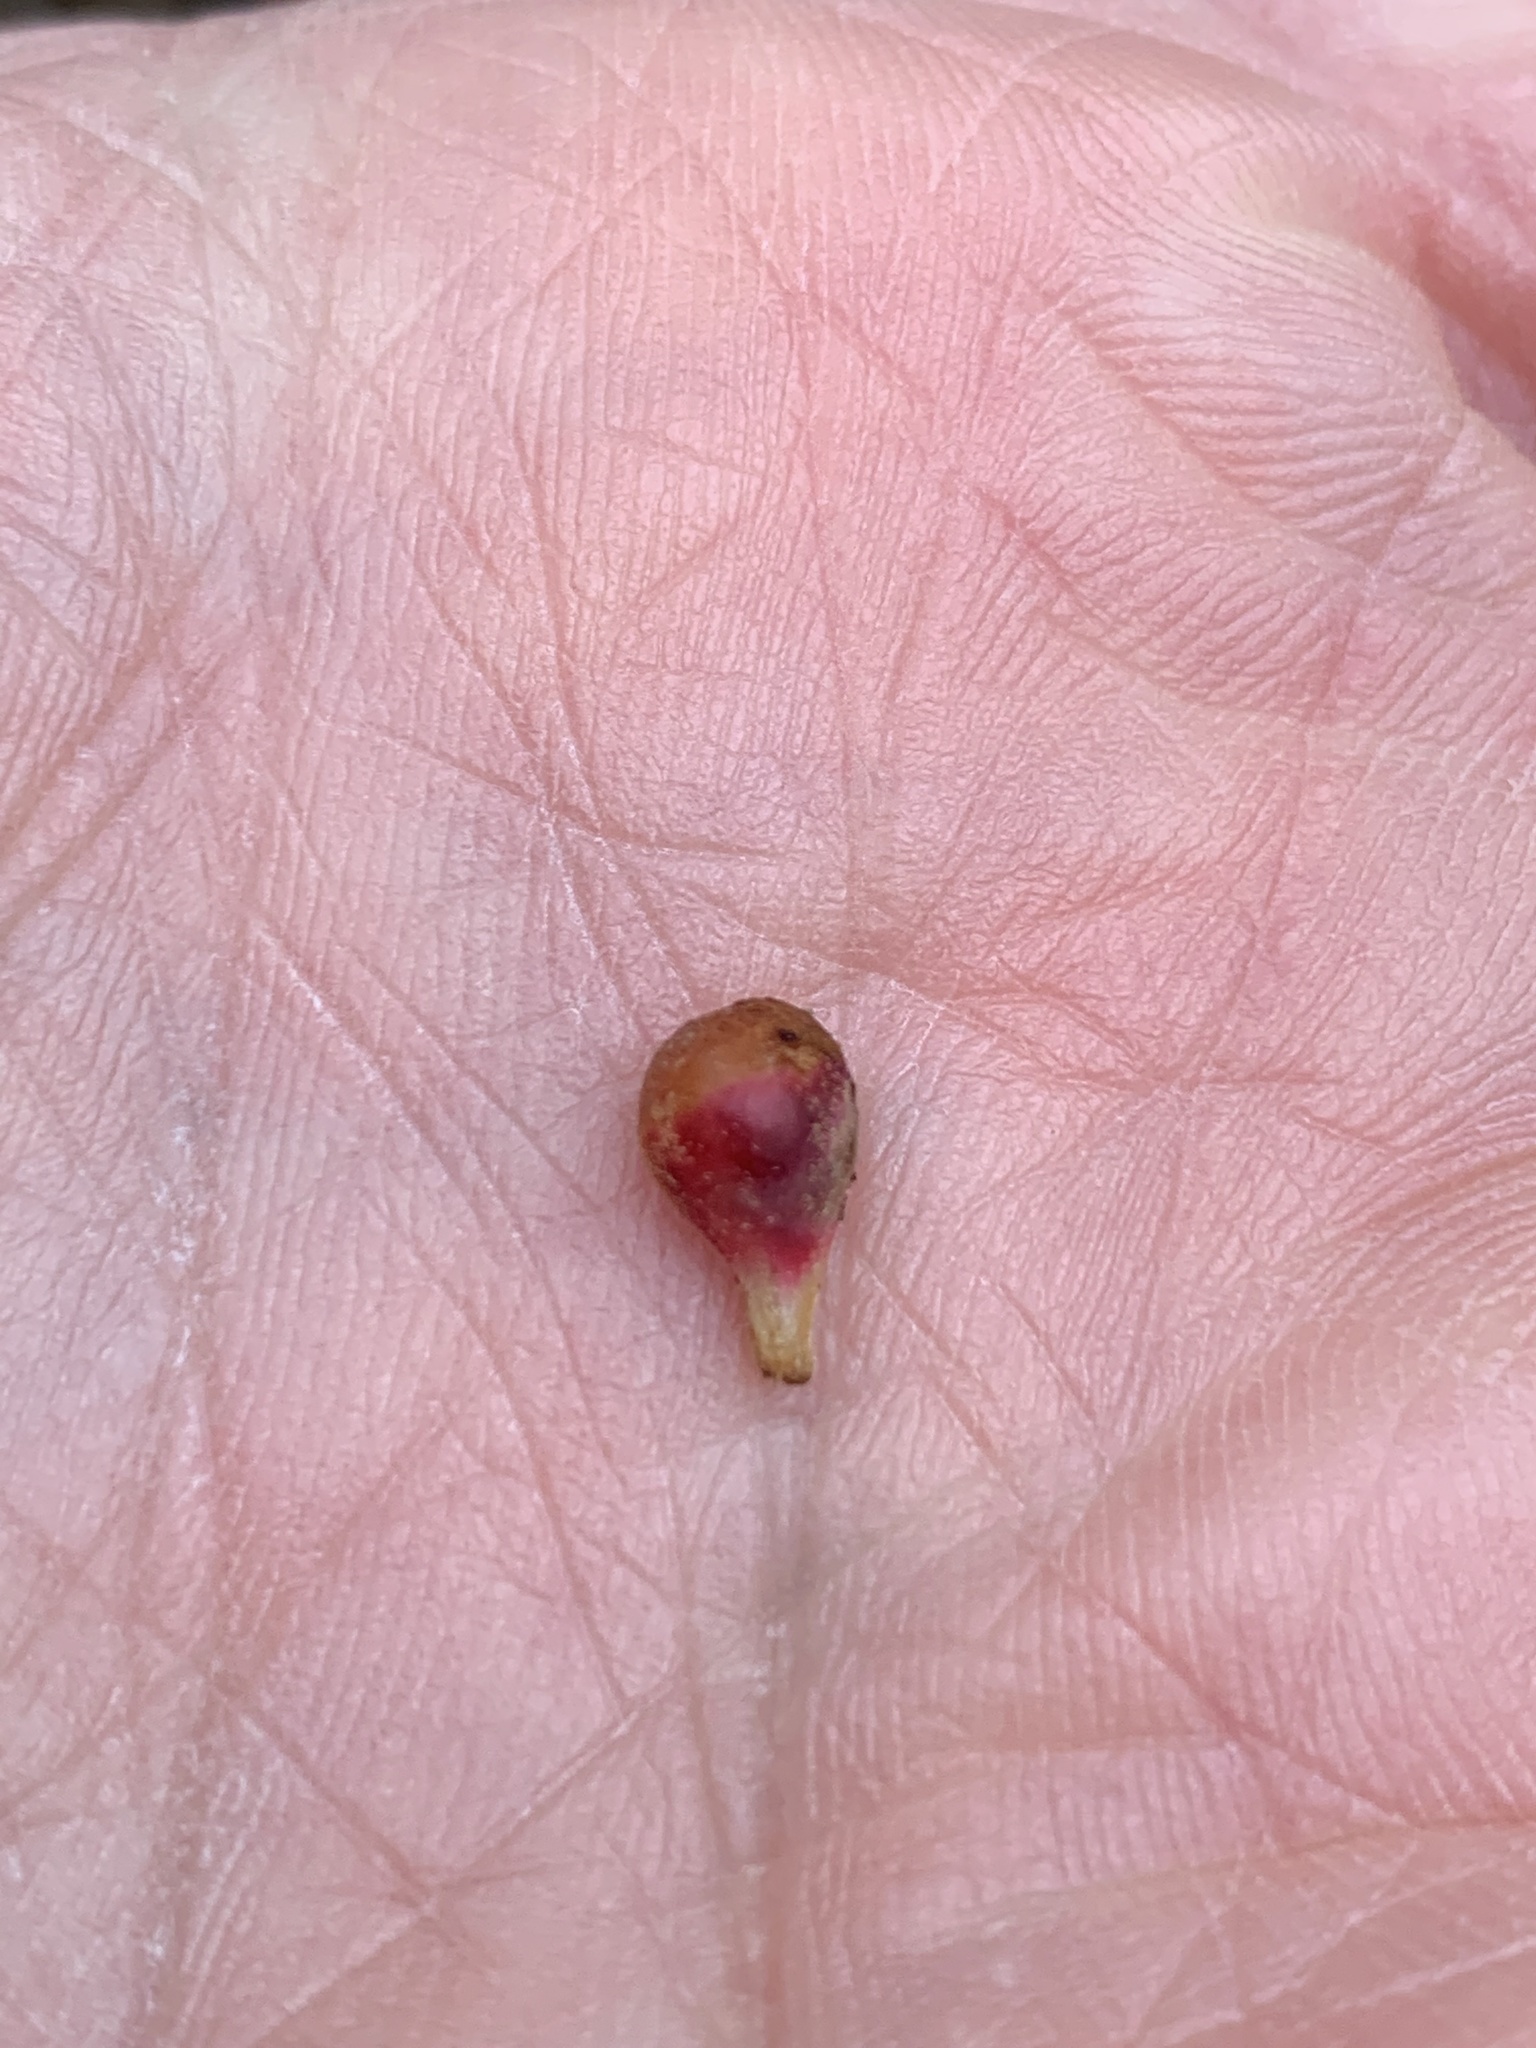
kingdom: Animalia
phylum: Arthropoda
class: Insecta
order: Hymenoptera
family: Cynipidae
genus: Andricus
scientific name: Andricus
